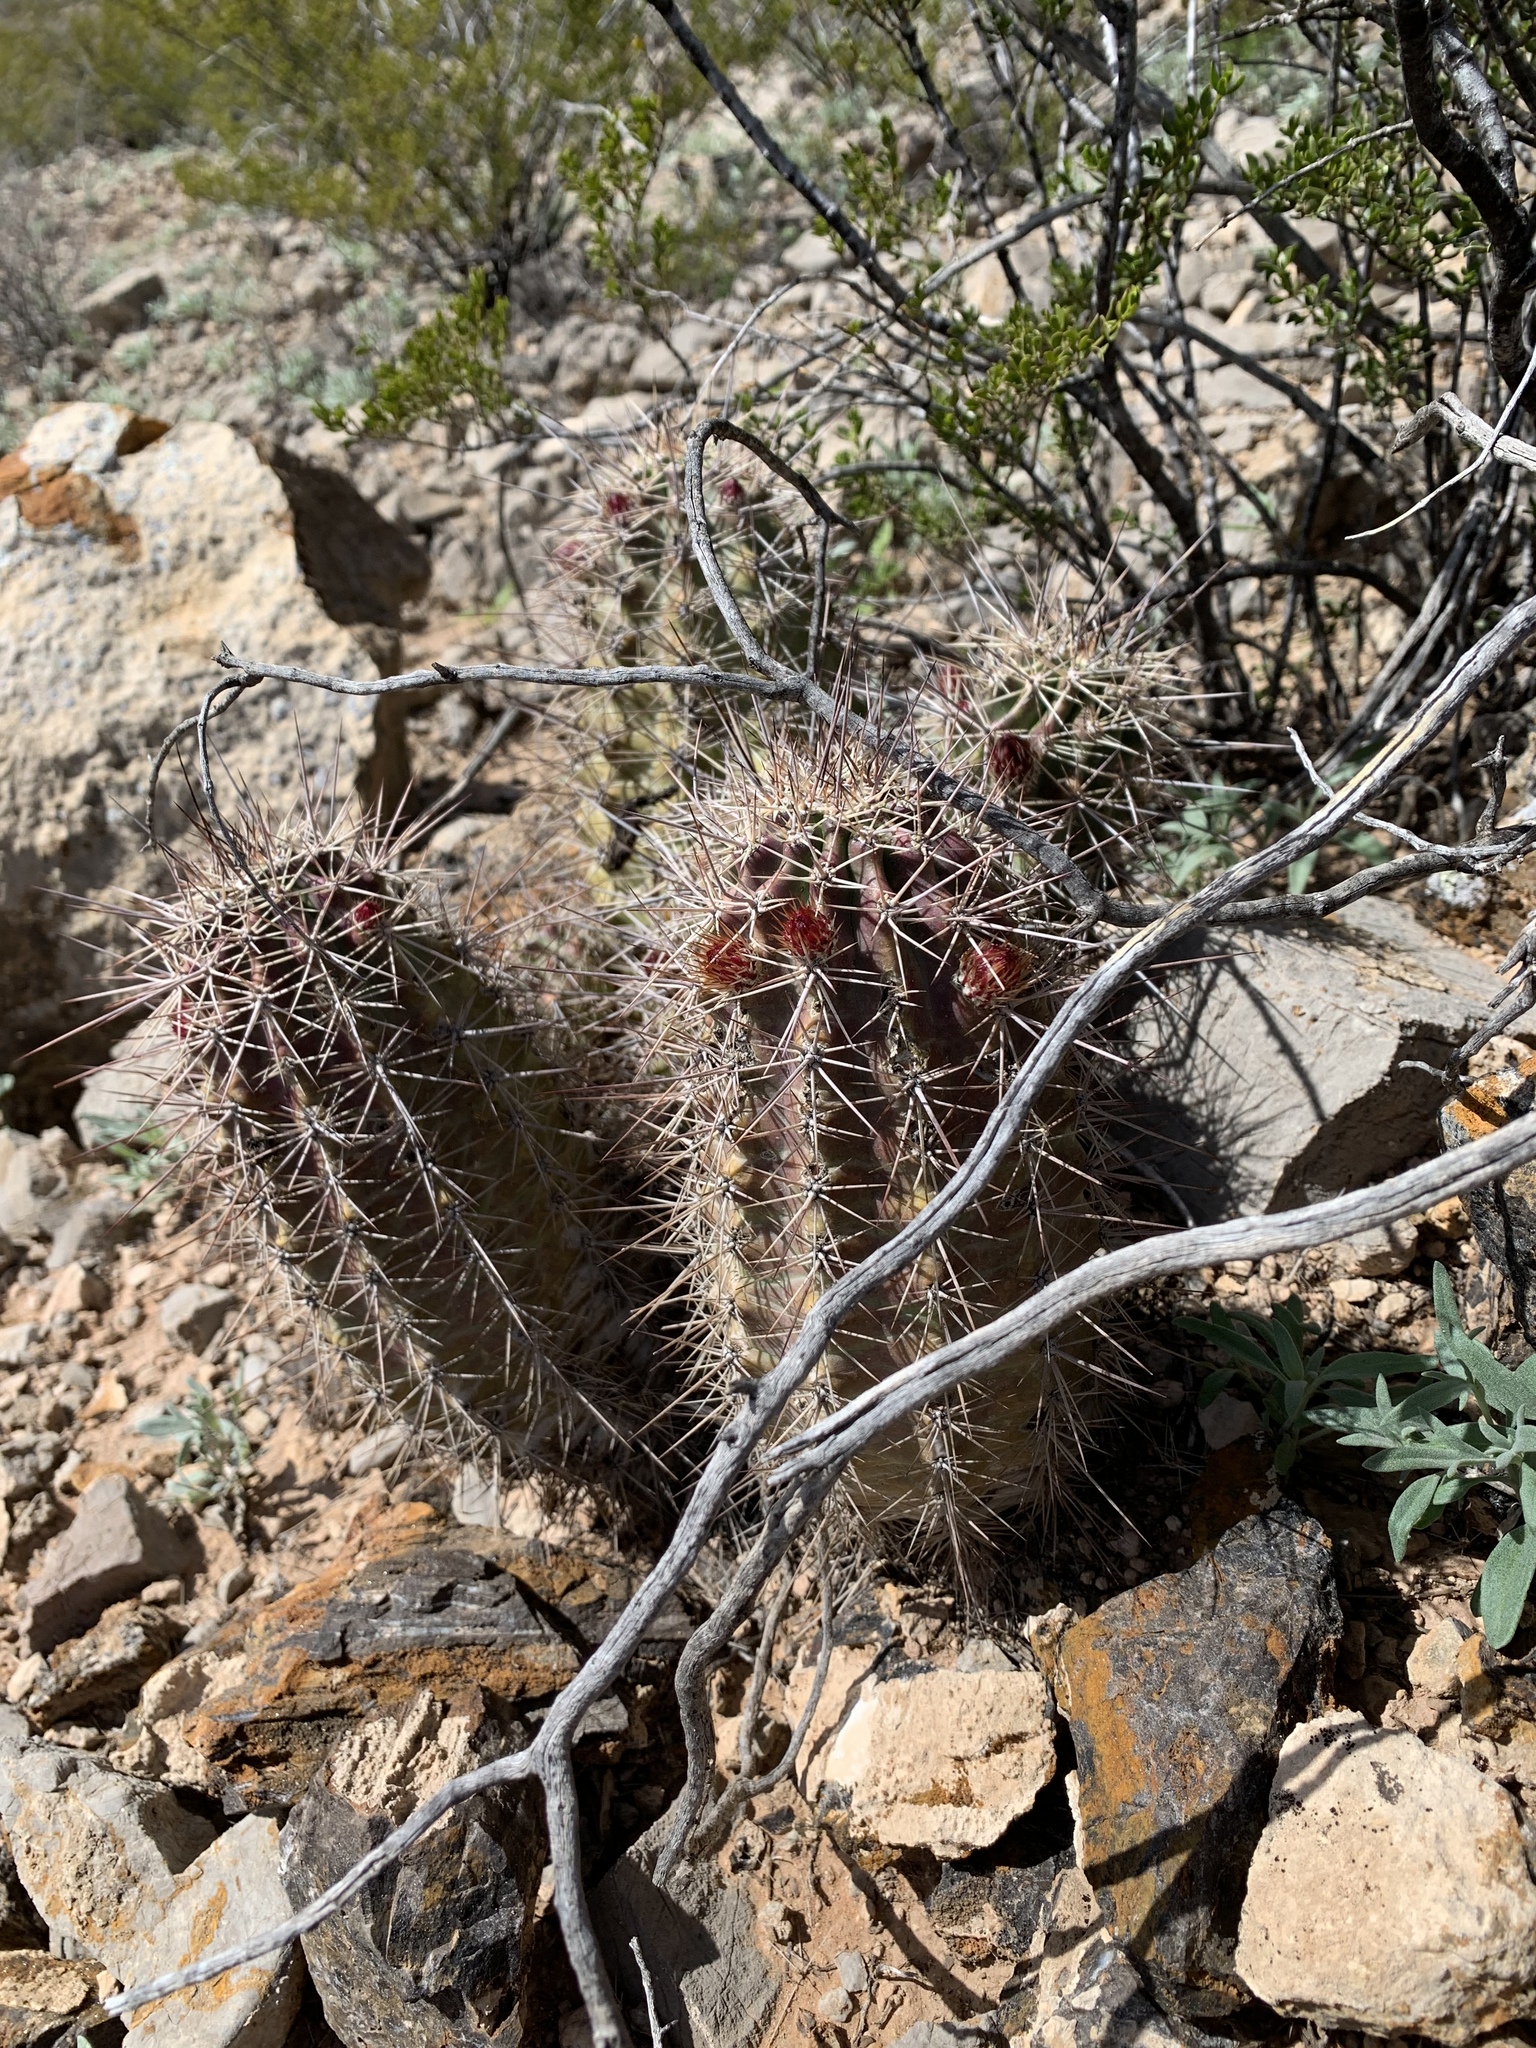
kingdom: Plantae
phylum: Tracheophyta
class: Magnoliopsida
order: Caryophyllales
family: Cactaceae
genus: Echinocereus
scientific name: Echinocereus coccineus
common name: Scarlet hedgehog cactus
